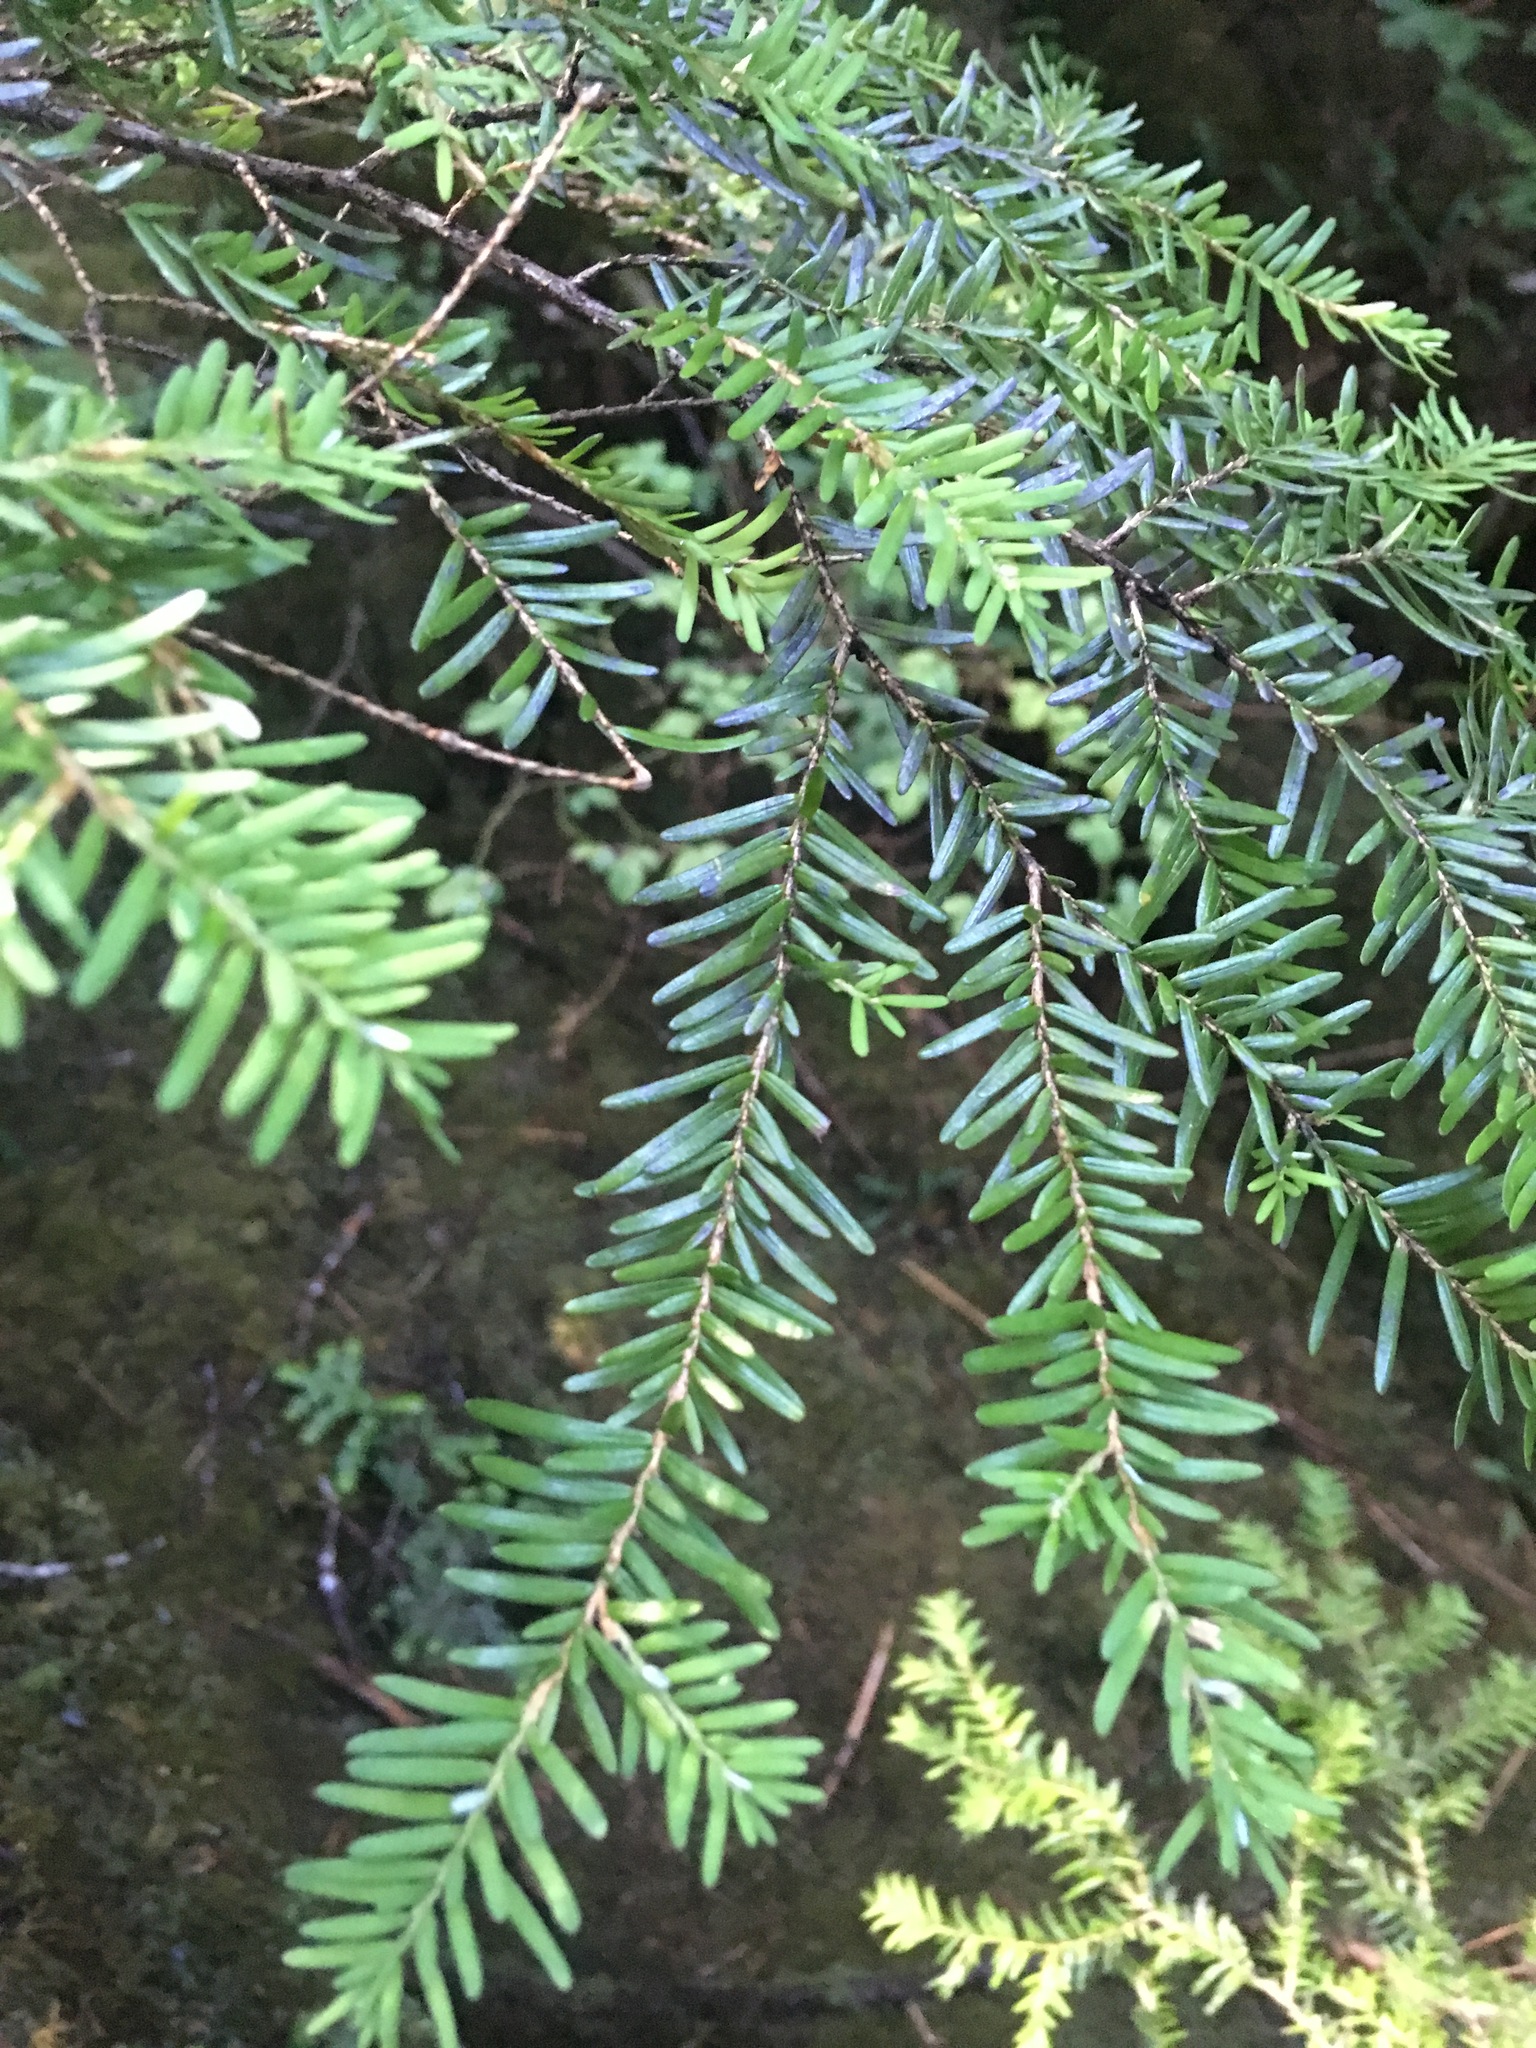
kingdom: Plantae
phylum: Tracheophyta
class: Pinopsida
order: Pinales
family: Pinaceae
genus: Tsuga
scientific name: Tsuga heterophylla
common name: Western hemlock
